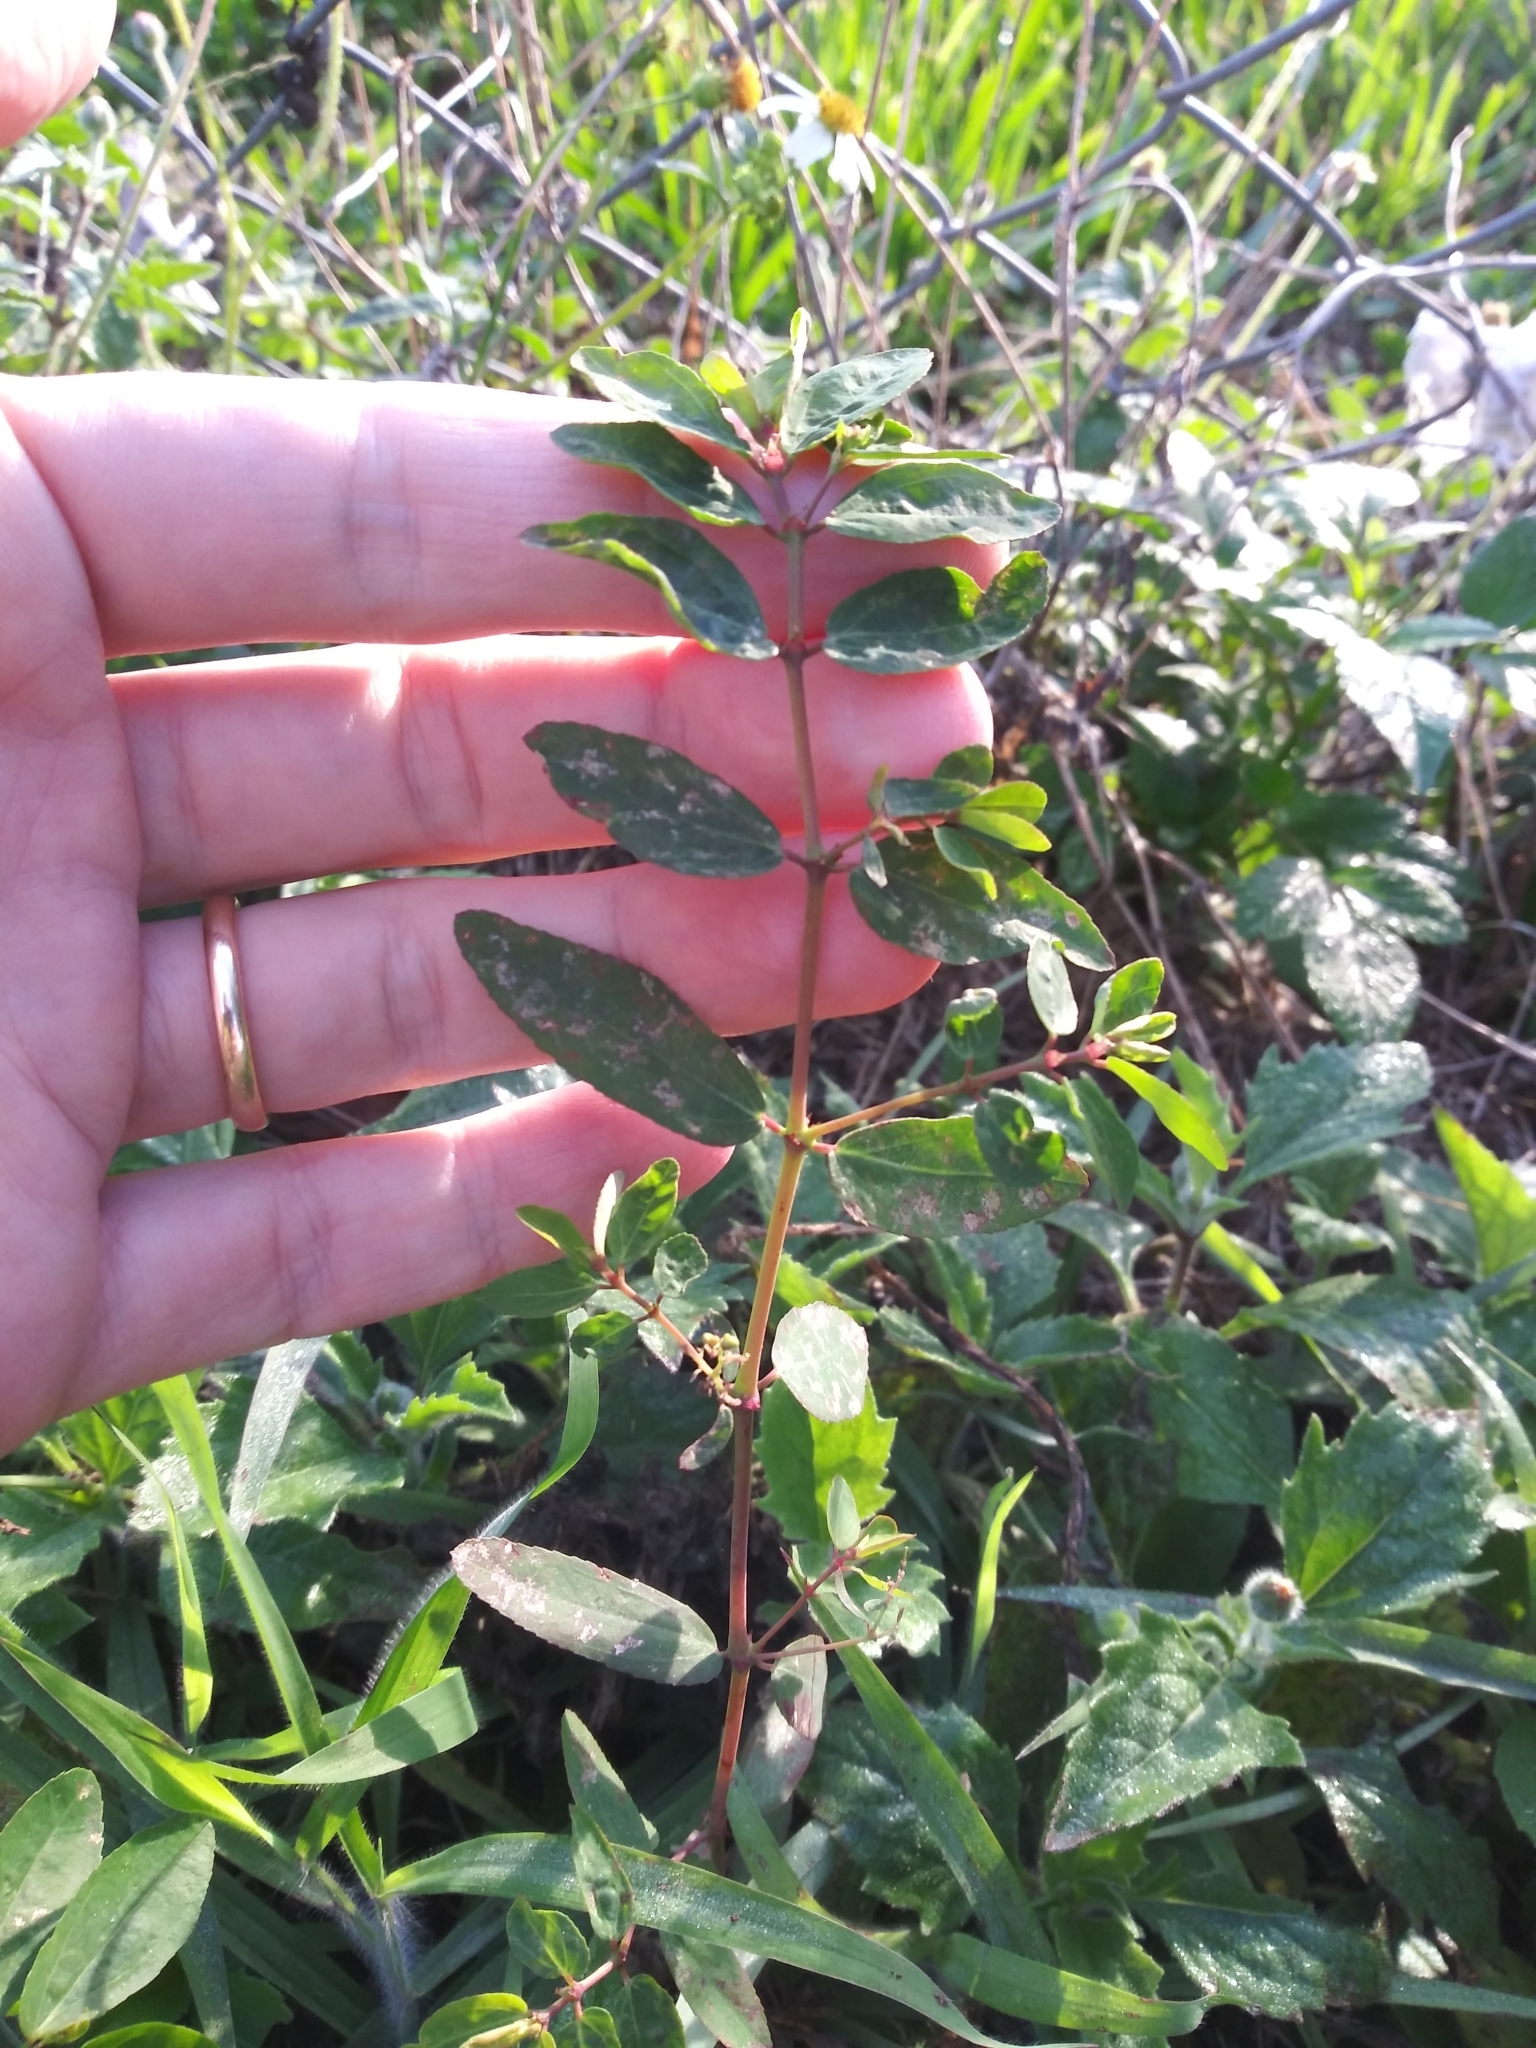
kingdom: Plantae
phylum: Tracheophyta
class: Magnoliopsida
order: Malpighiales
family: Euphorbiaceae
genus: Euphorbia
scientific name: Euphorbia hypericifolia
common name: Graceful sandmat
